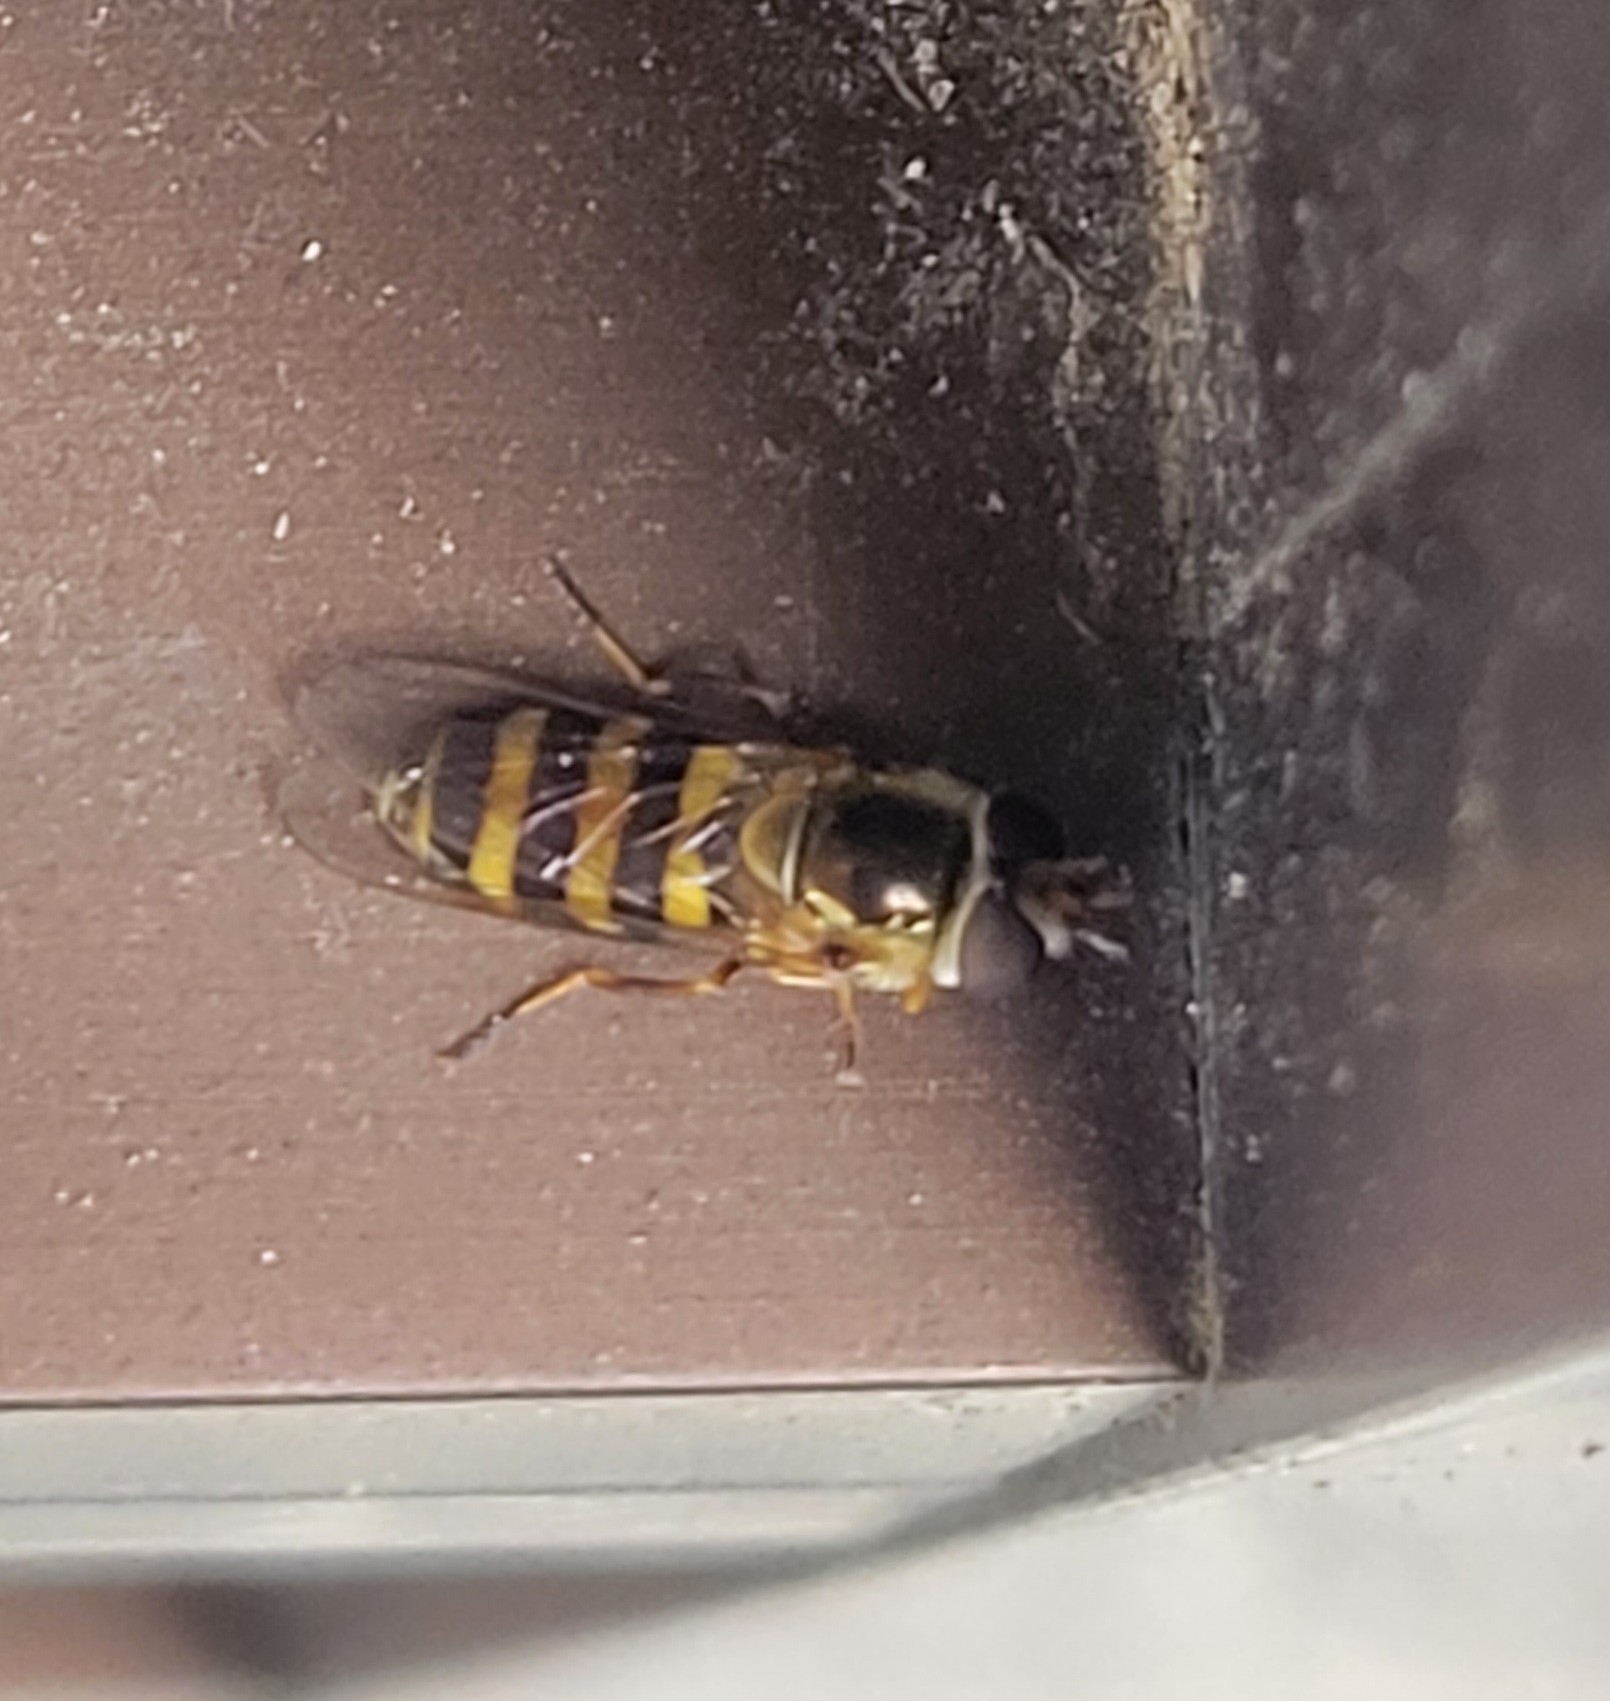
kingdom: Animalia
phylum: Arthropoda
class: Insecta
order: Diptera
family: Syrphidae
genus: Eupeodes
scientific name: Eupeodes
